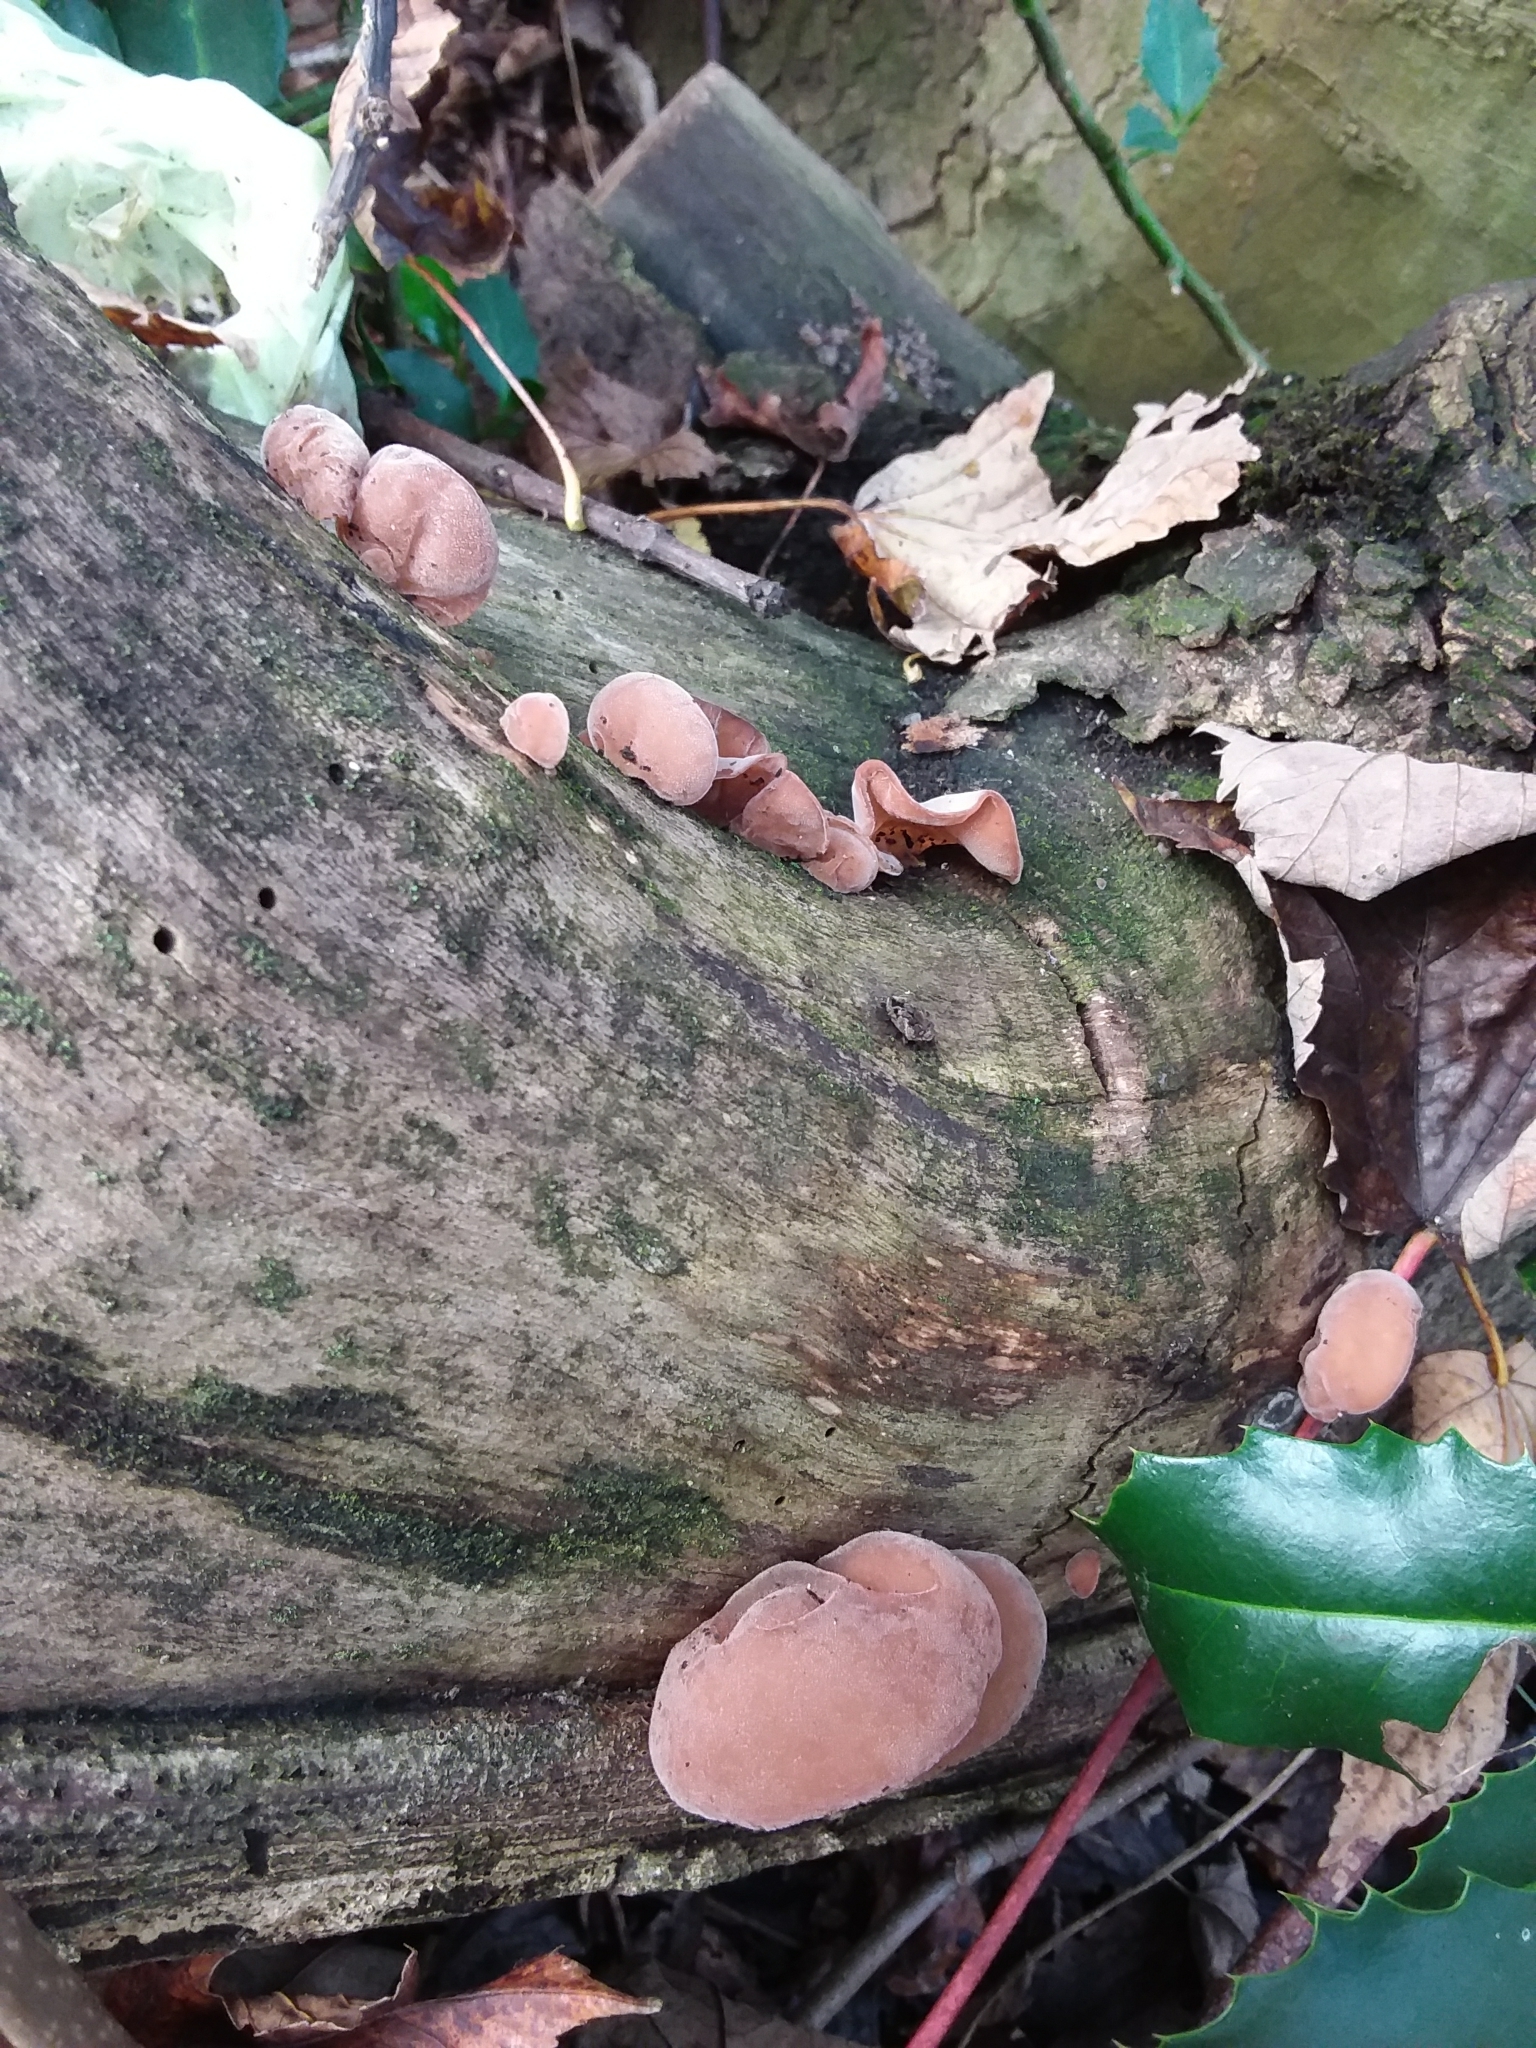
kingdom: Fungi
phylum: Basidiomycota
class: Agaricomycetes
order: Auriculariales
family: Auriculariaceae
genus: Auricularia
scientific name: Auricularia auricula-judae
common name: Jelly ear
